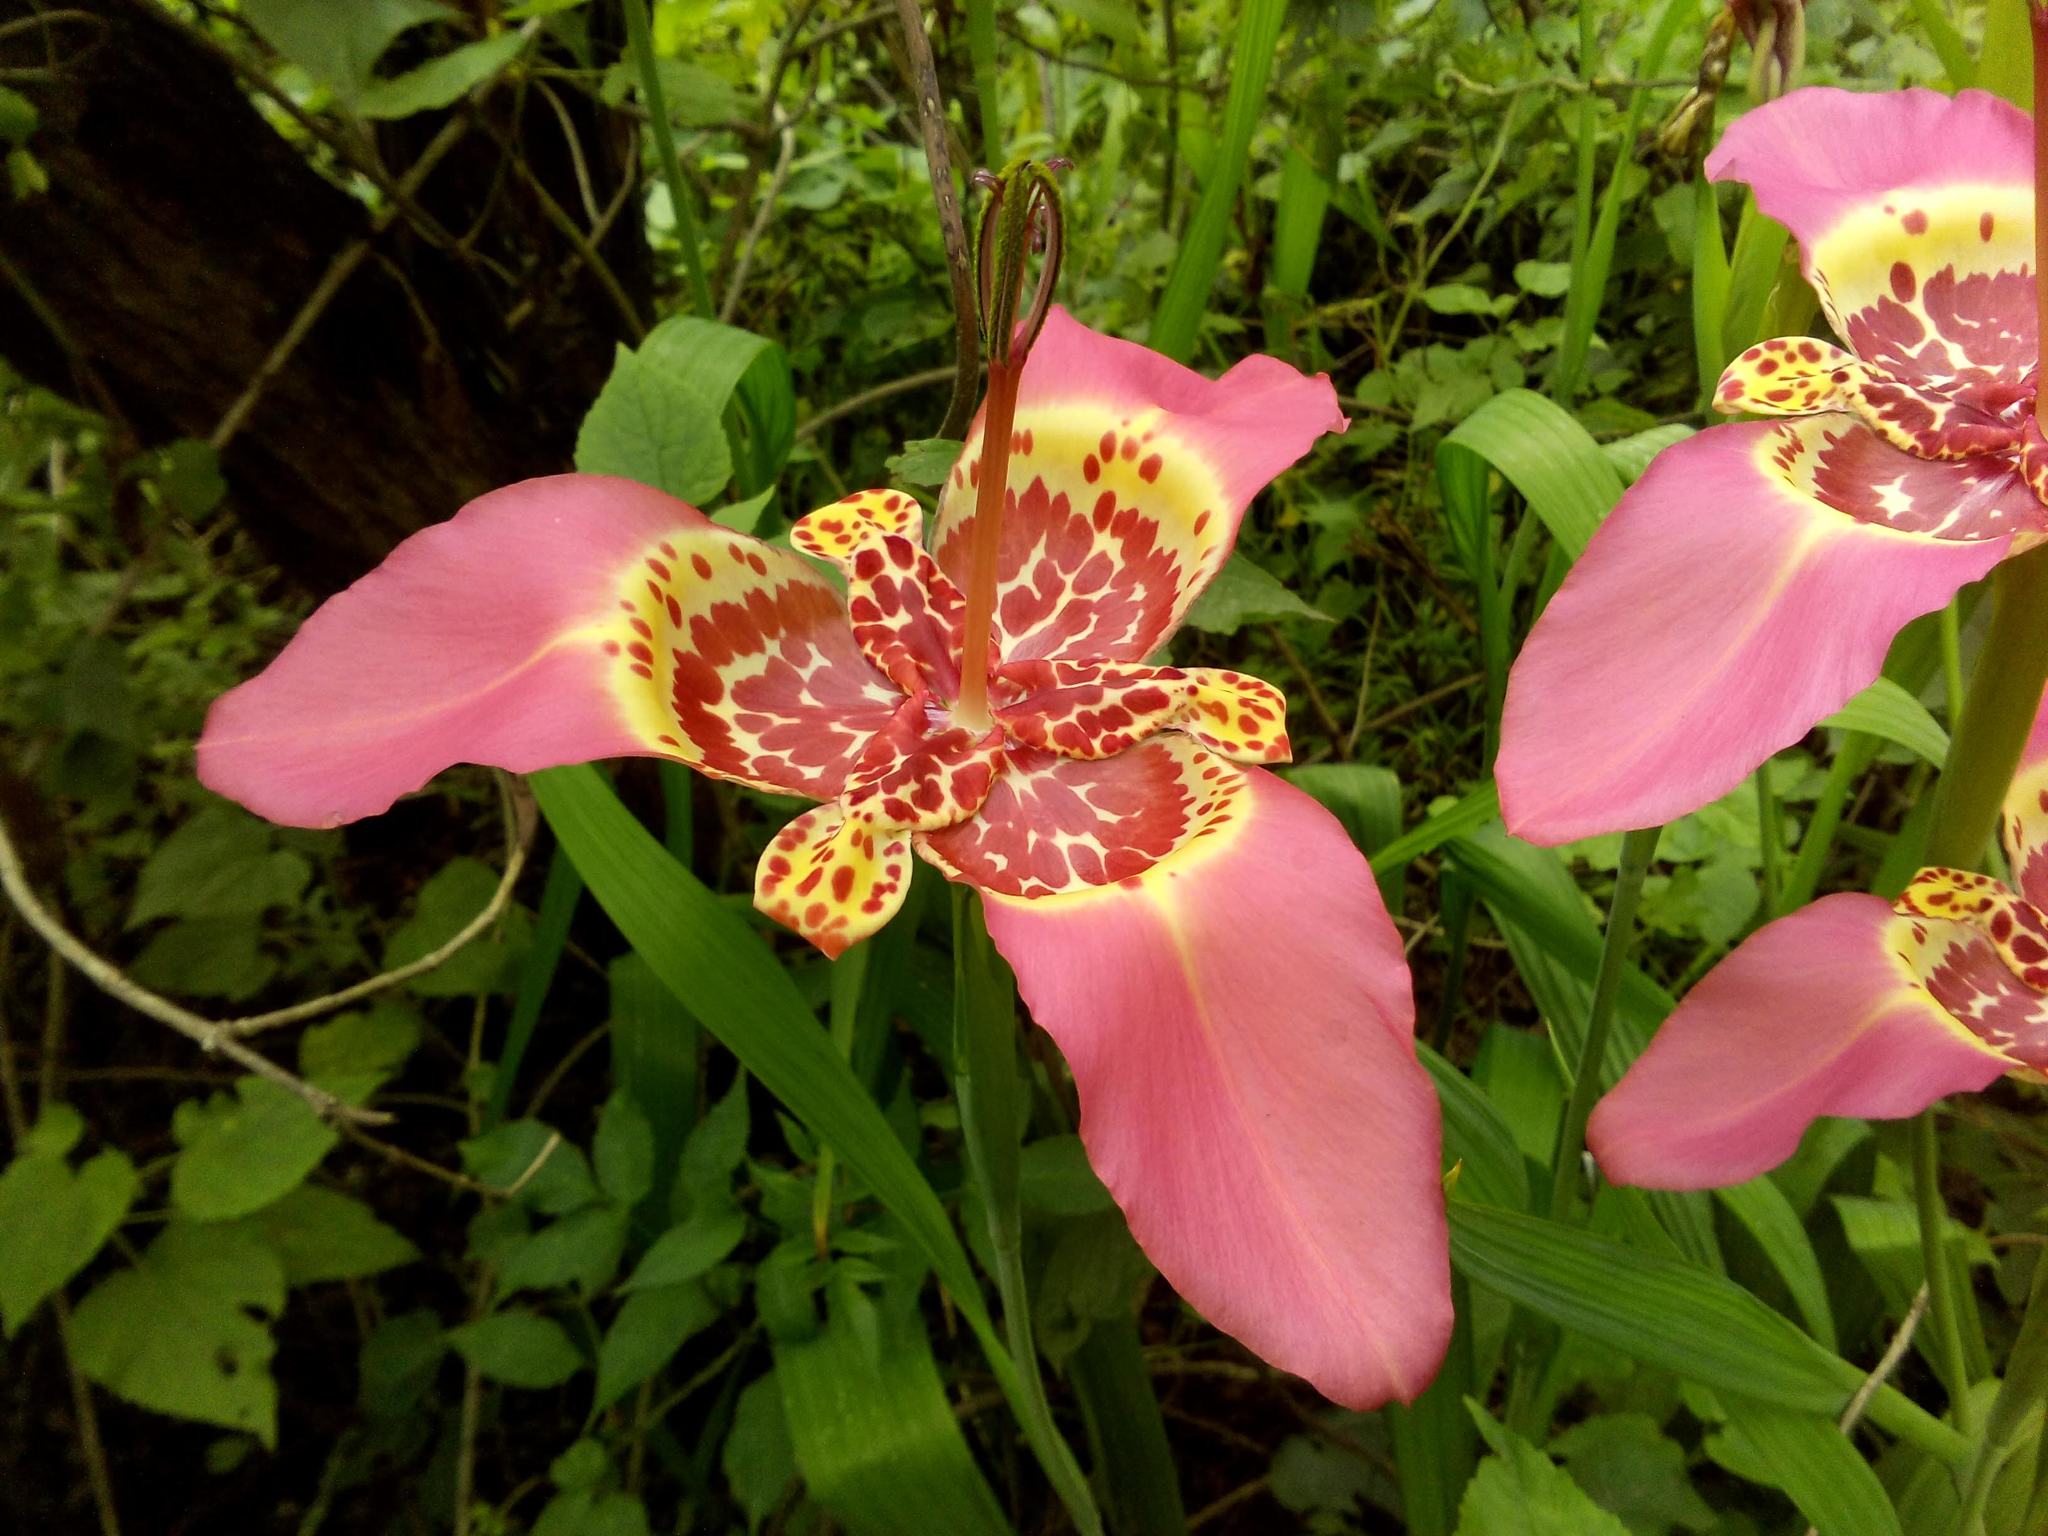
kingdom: Plantae
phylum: Tracheophyta
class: Liliopsida
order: Asparagales
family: Iridaceae
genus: Tigridia
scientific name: Tigridia pavonia
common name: Peacock-flower
